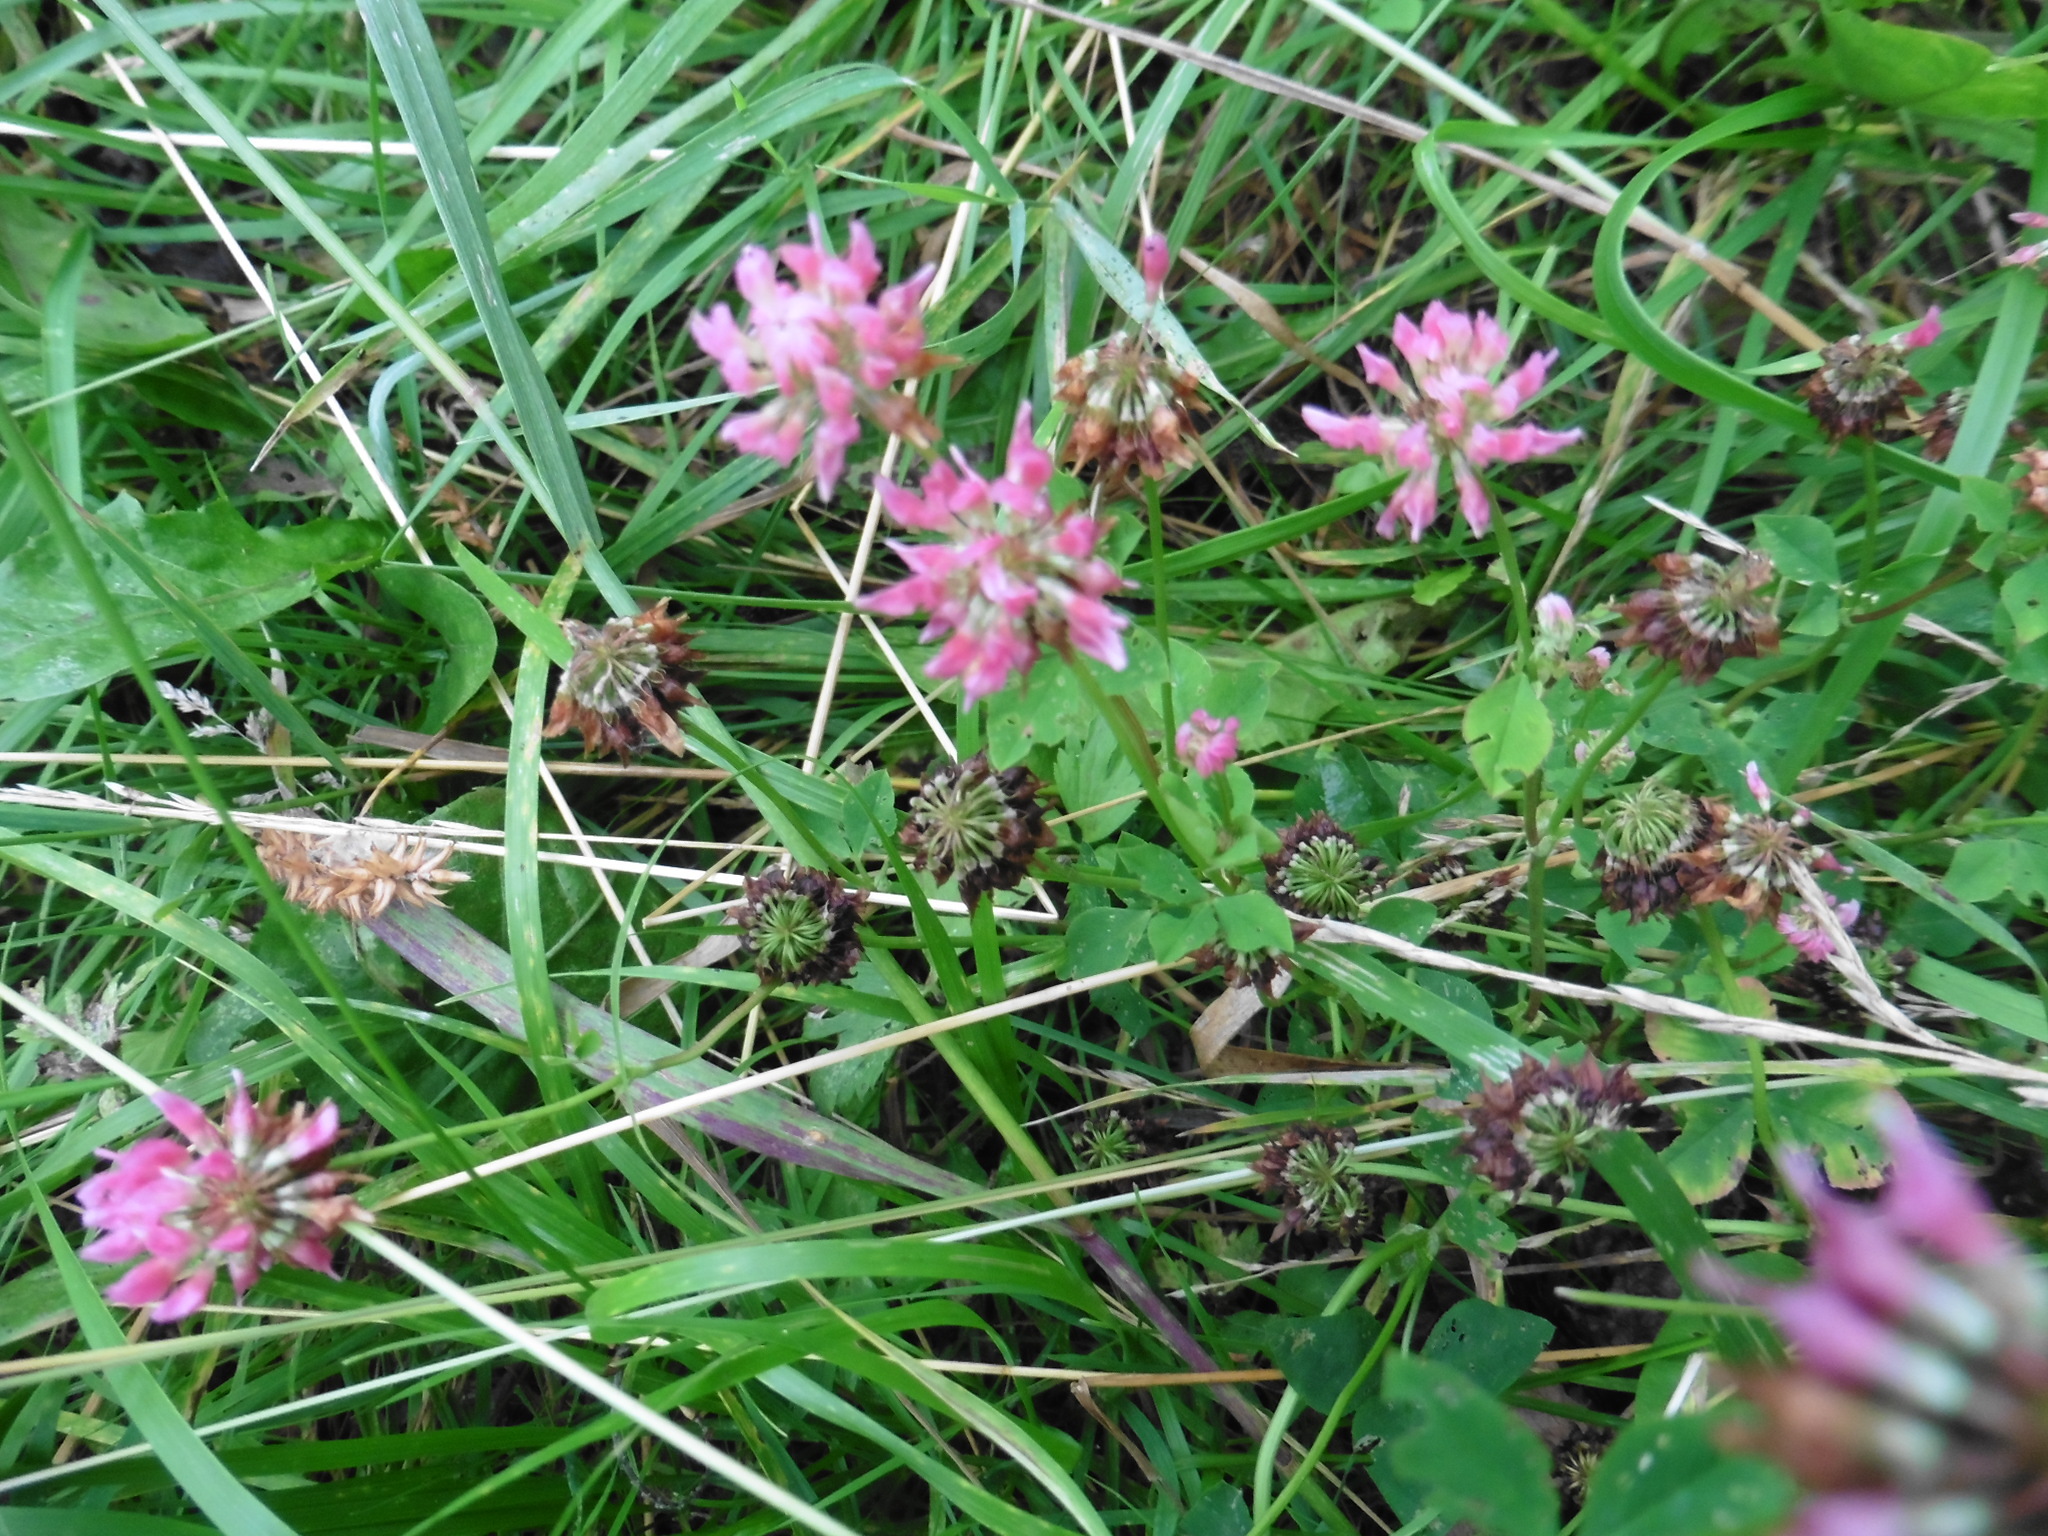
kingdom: Plantae
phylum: Tracheophyta
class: Magnoliopsida
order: Fabales
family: Fabaceae
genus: Trifolium
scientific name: Trifolium hybridum
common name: Alsike clover
